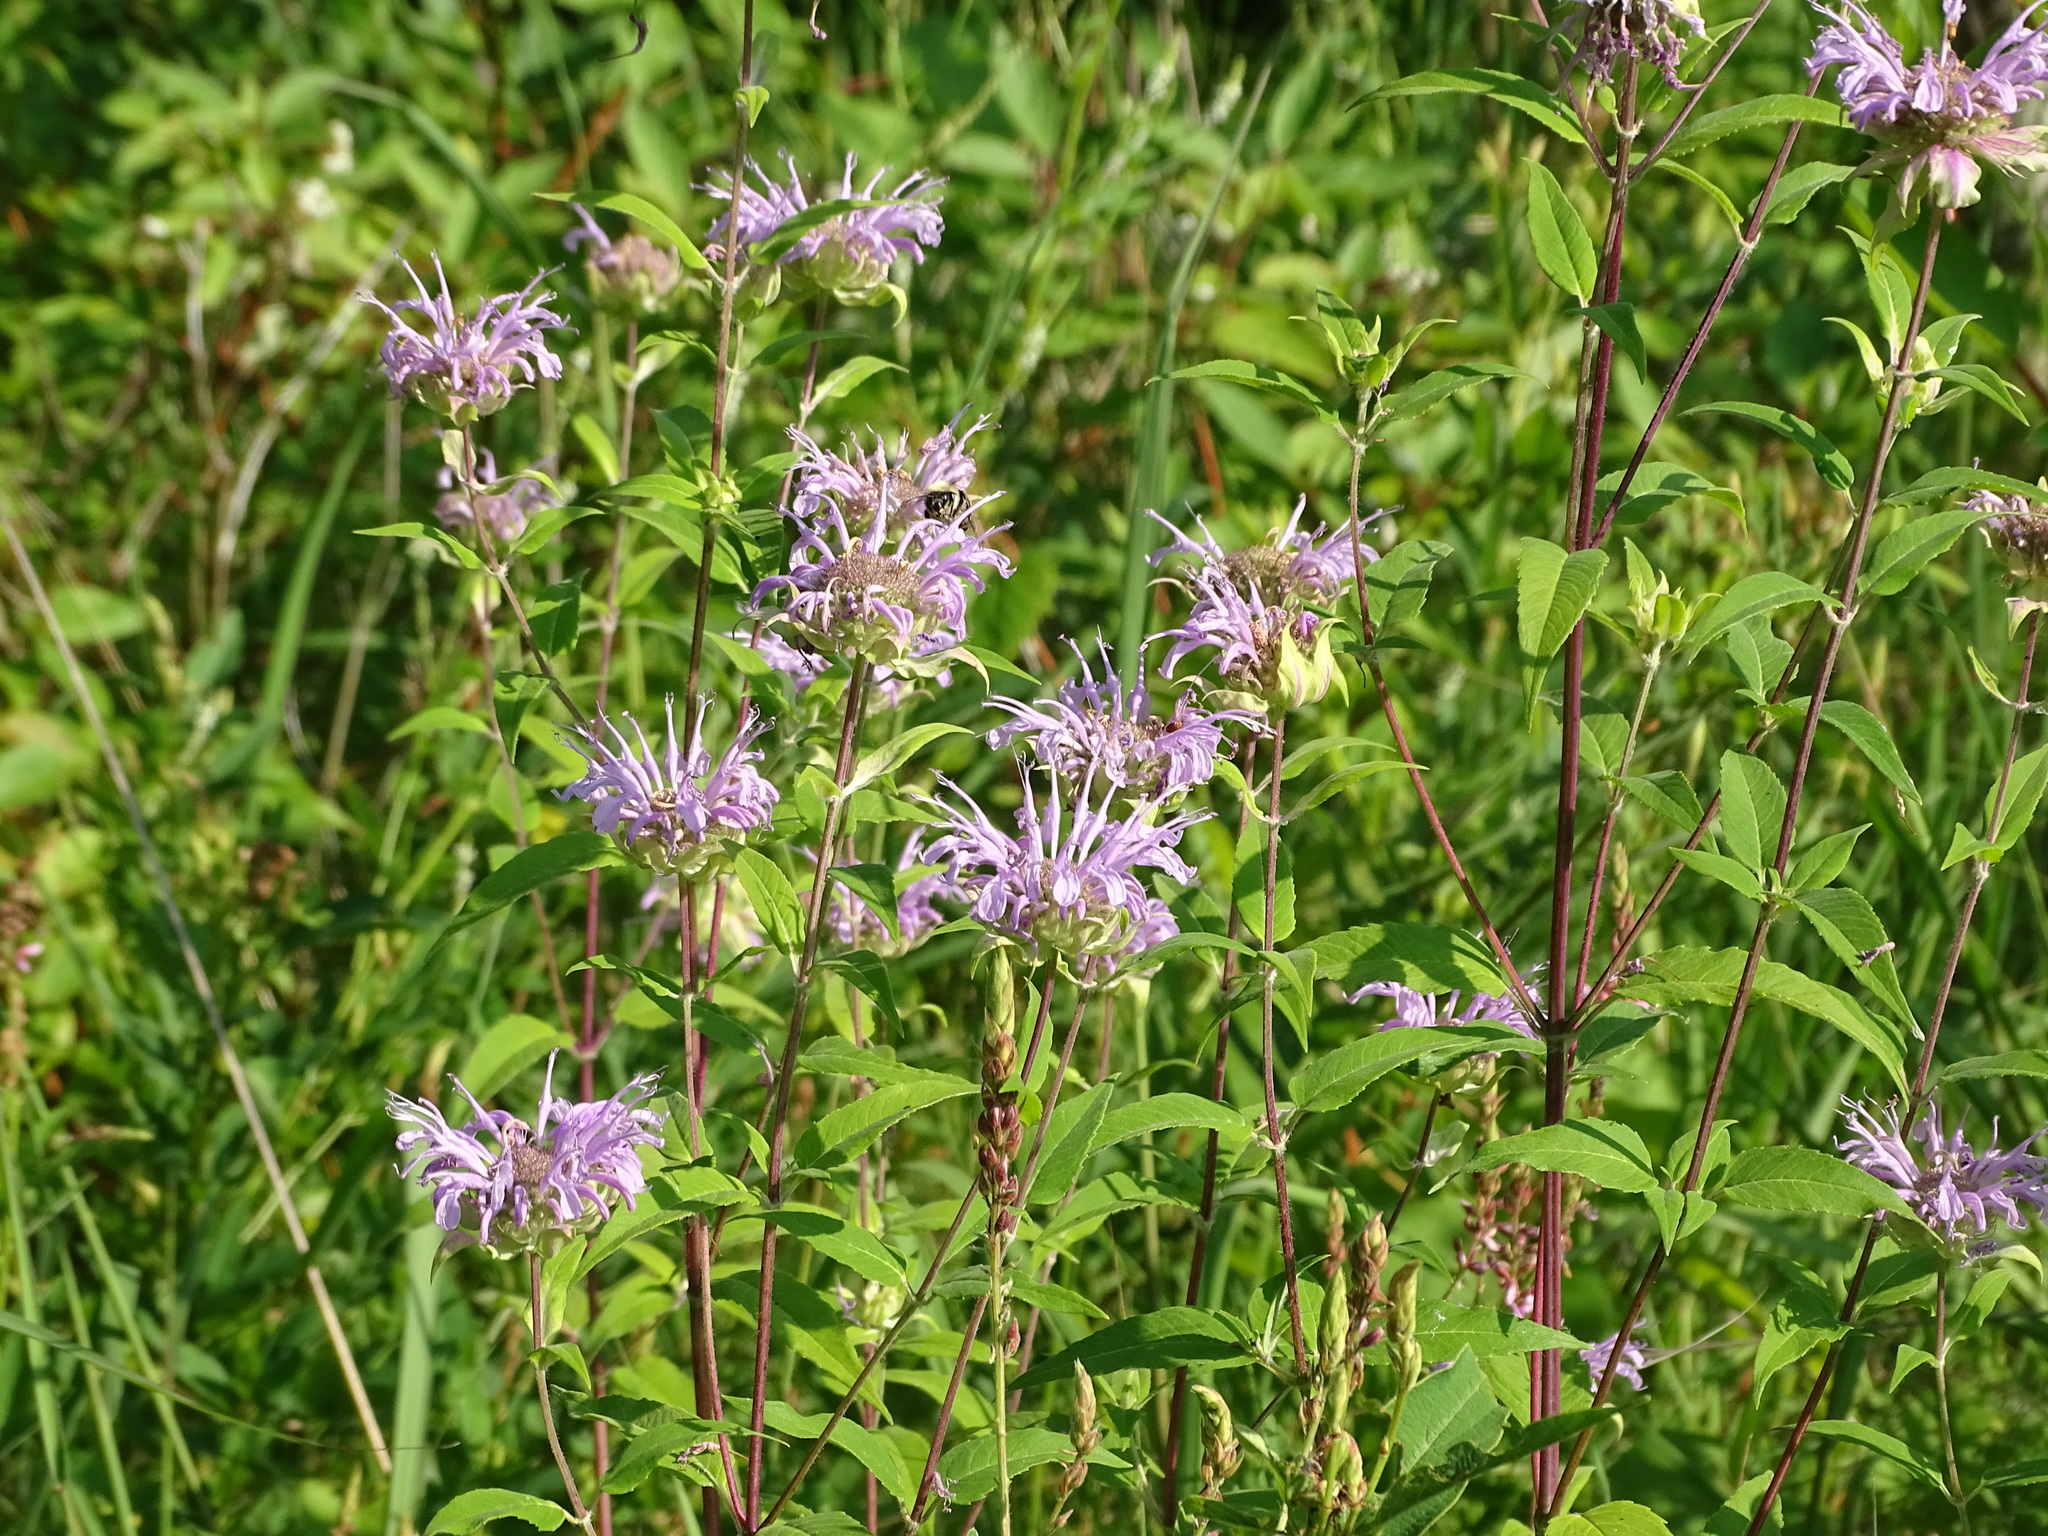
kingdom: Plantae
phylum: Tracheophyta
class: Magnoliopsida
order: Lamiales
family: Lamiaceae
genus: Monarda
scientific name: Monarda fistulosa
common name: Purple beebalm
